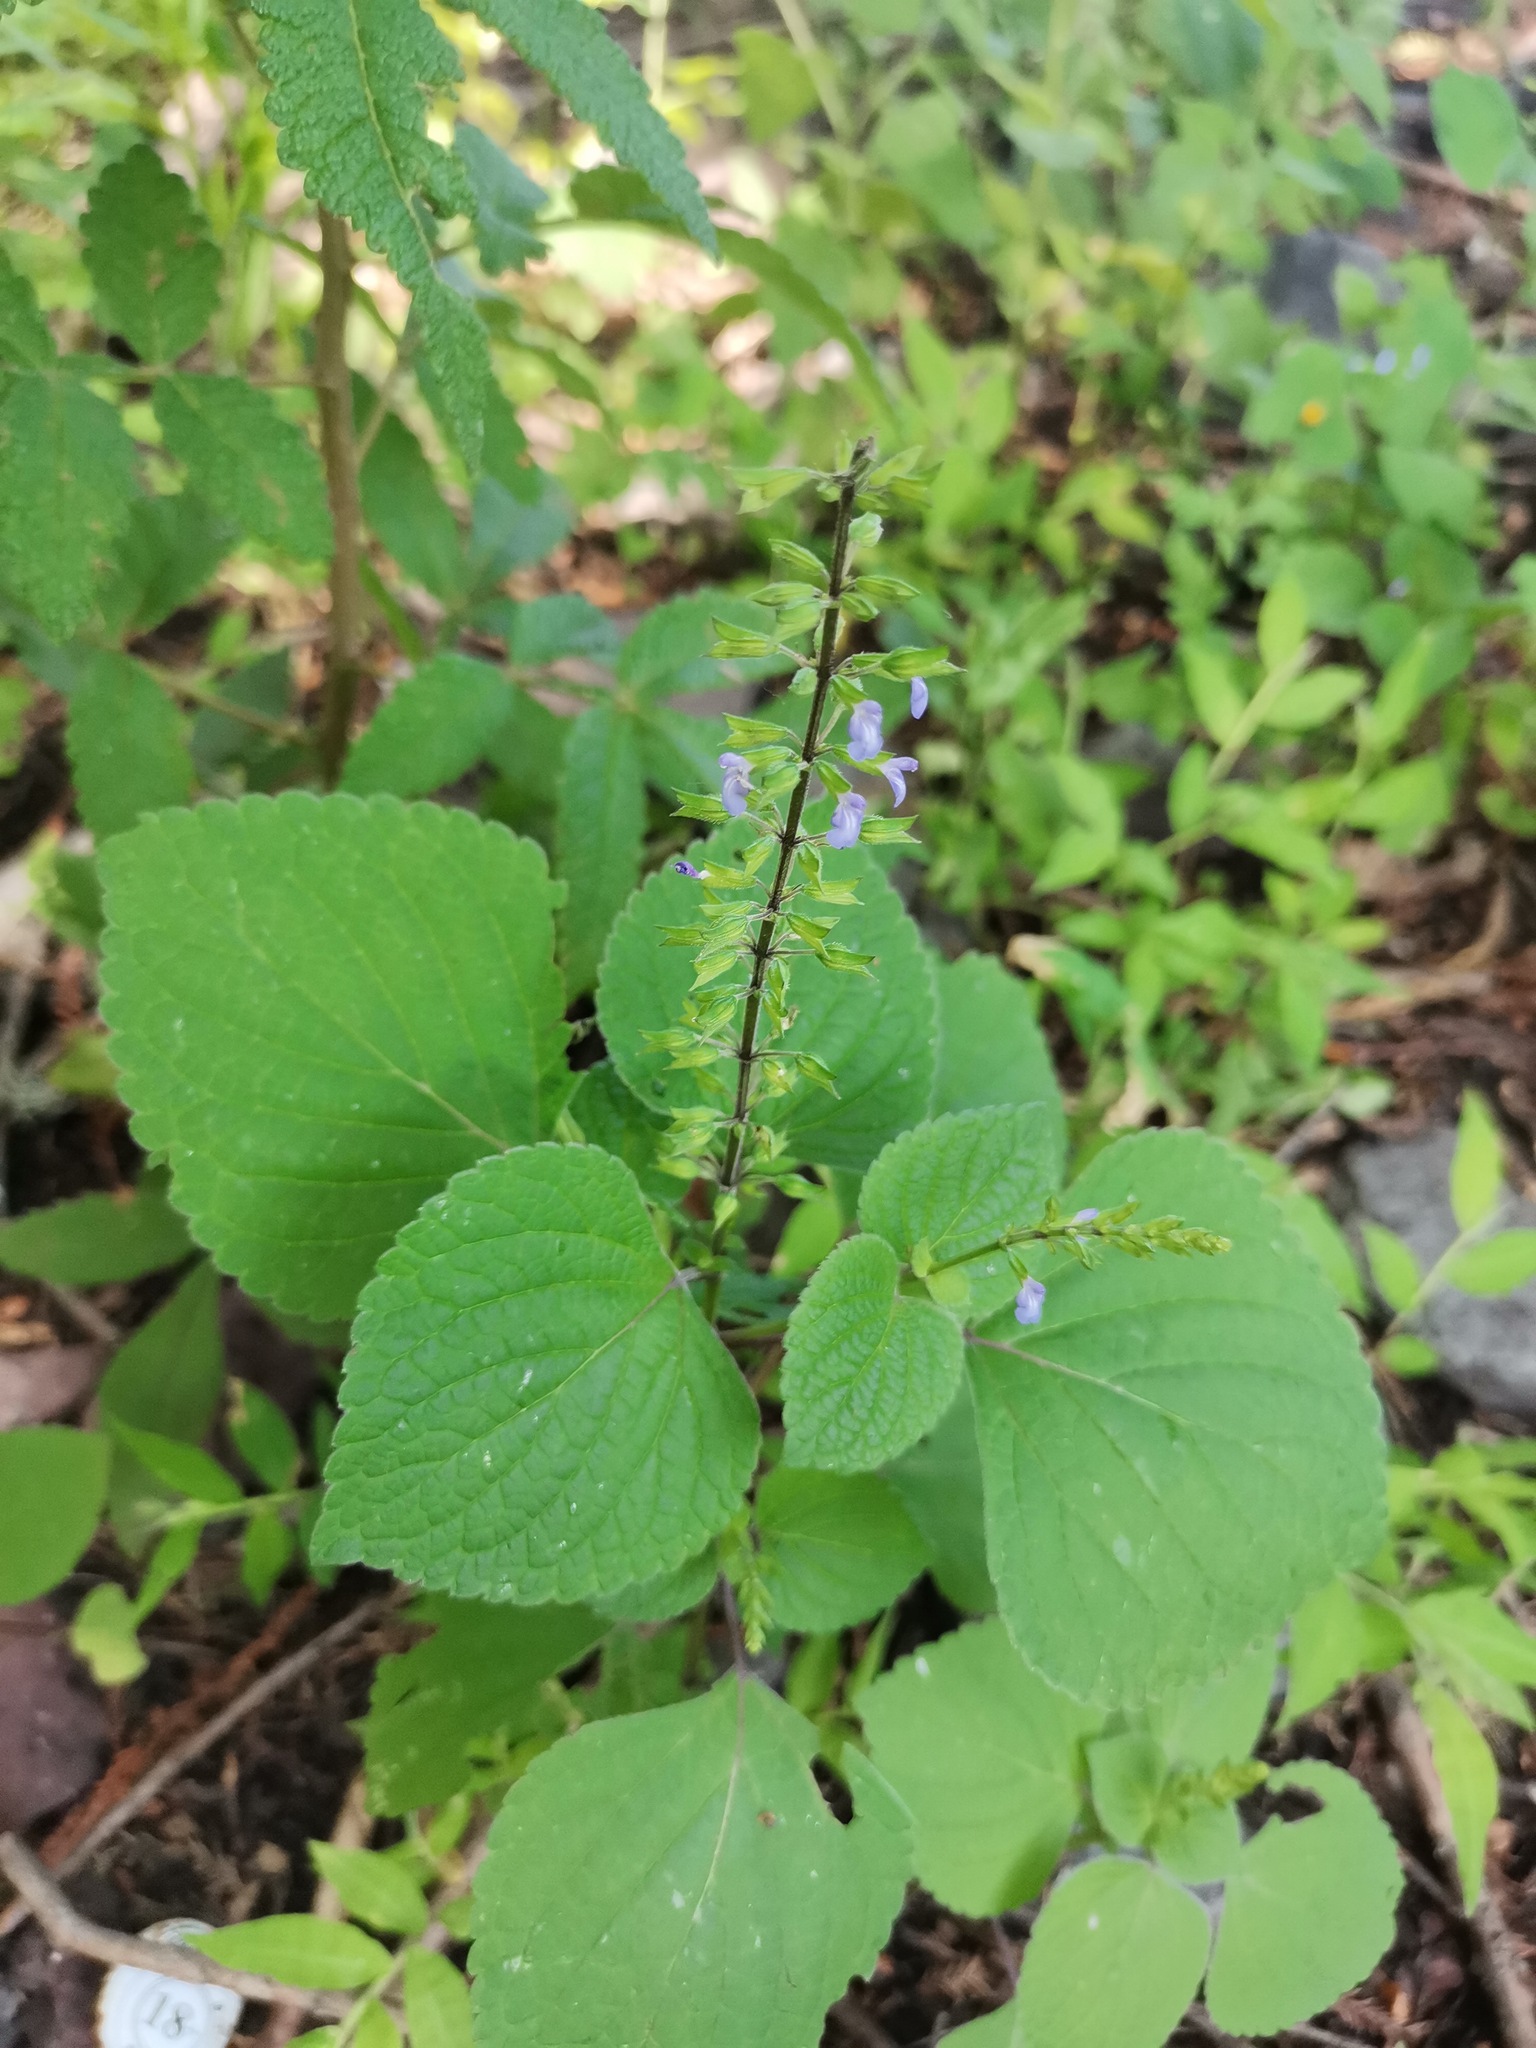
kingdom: Plantae
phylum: Tracheophyta
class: Magnoliopsida
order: Lamiales
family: Lamiaceae
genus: Salvia
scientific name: Salvia tiliifolia
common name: Lindenleaf sage
